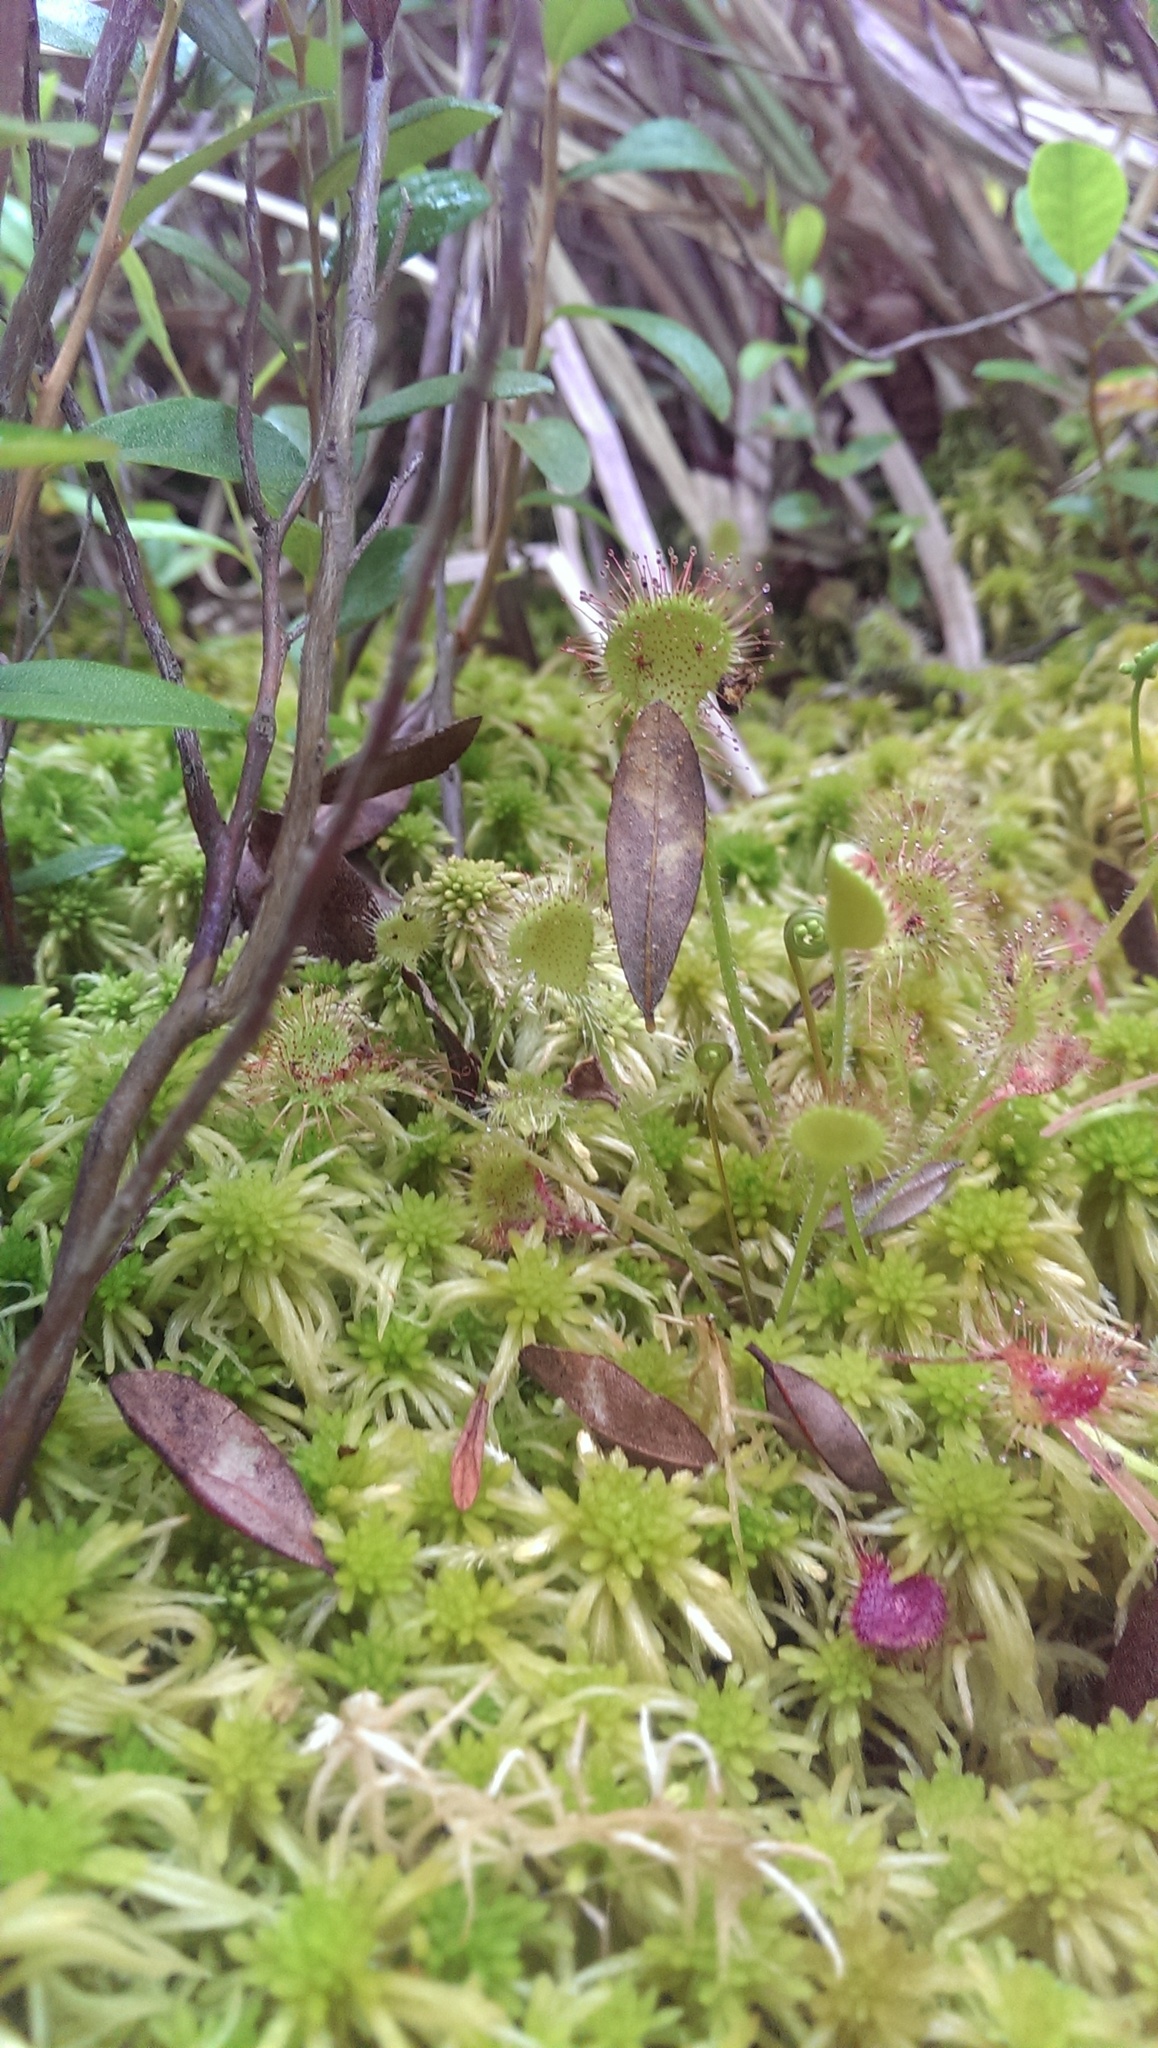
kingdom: Plantae
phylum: Tracheophyta
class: Magnoliopsida
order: Caryophyllales
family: Droseraceae
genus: Drosera
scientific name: Drosera rotundifolia
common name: Round-leaved sundew
